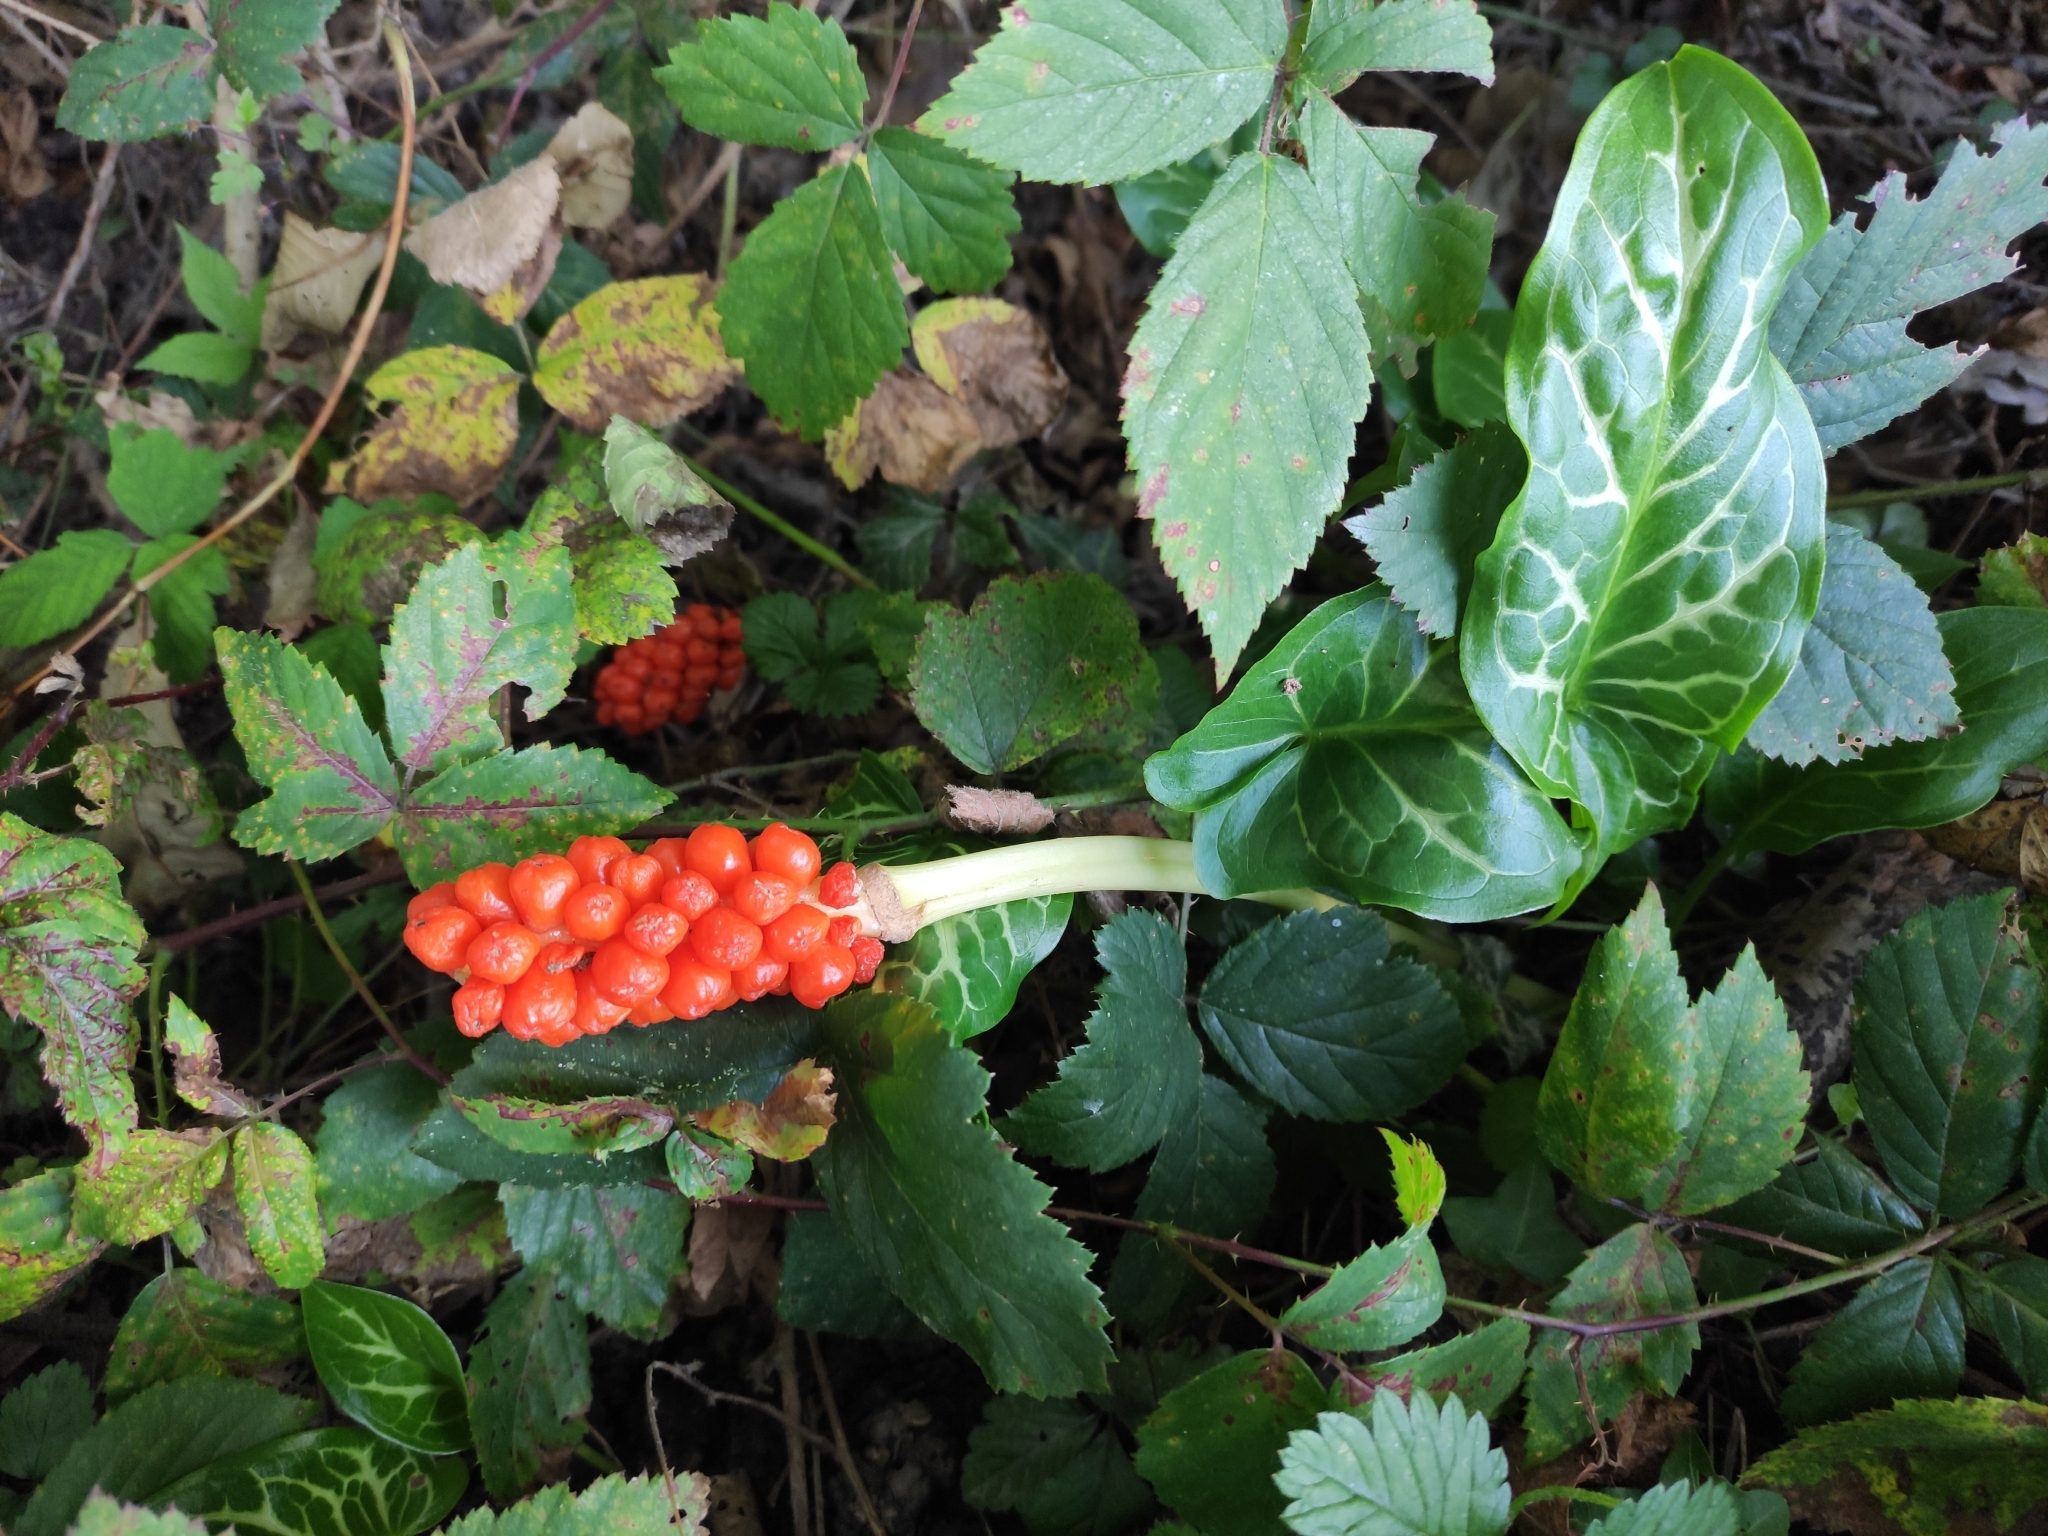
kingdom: Plantae
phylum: Tracheophyta
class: Liliopsida
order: Alismatales
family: Araceae
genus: Arum
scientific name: Arum italicum
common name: Italian lords-and-ladies
